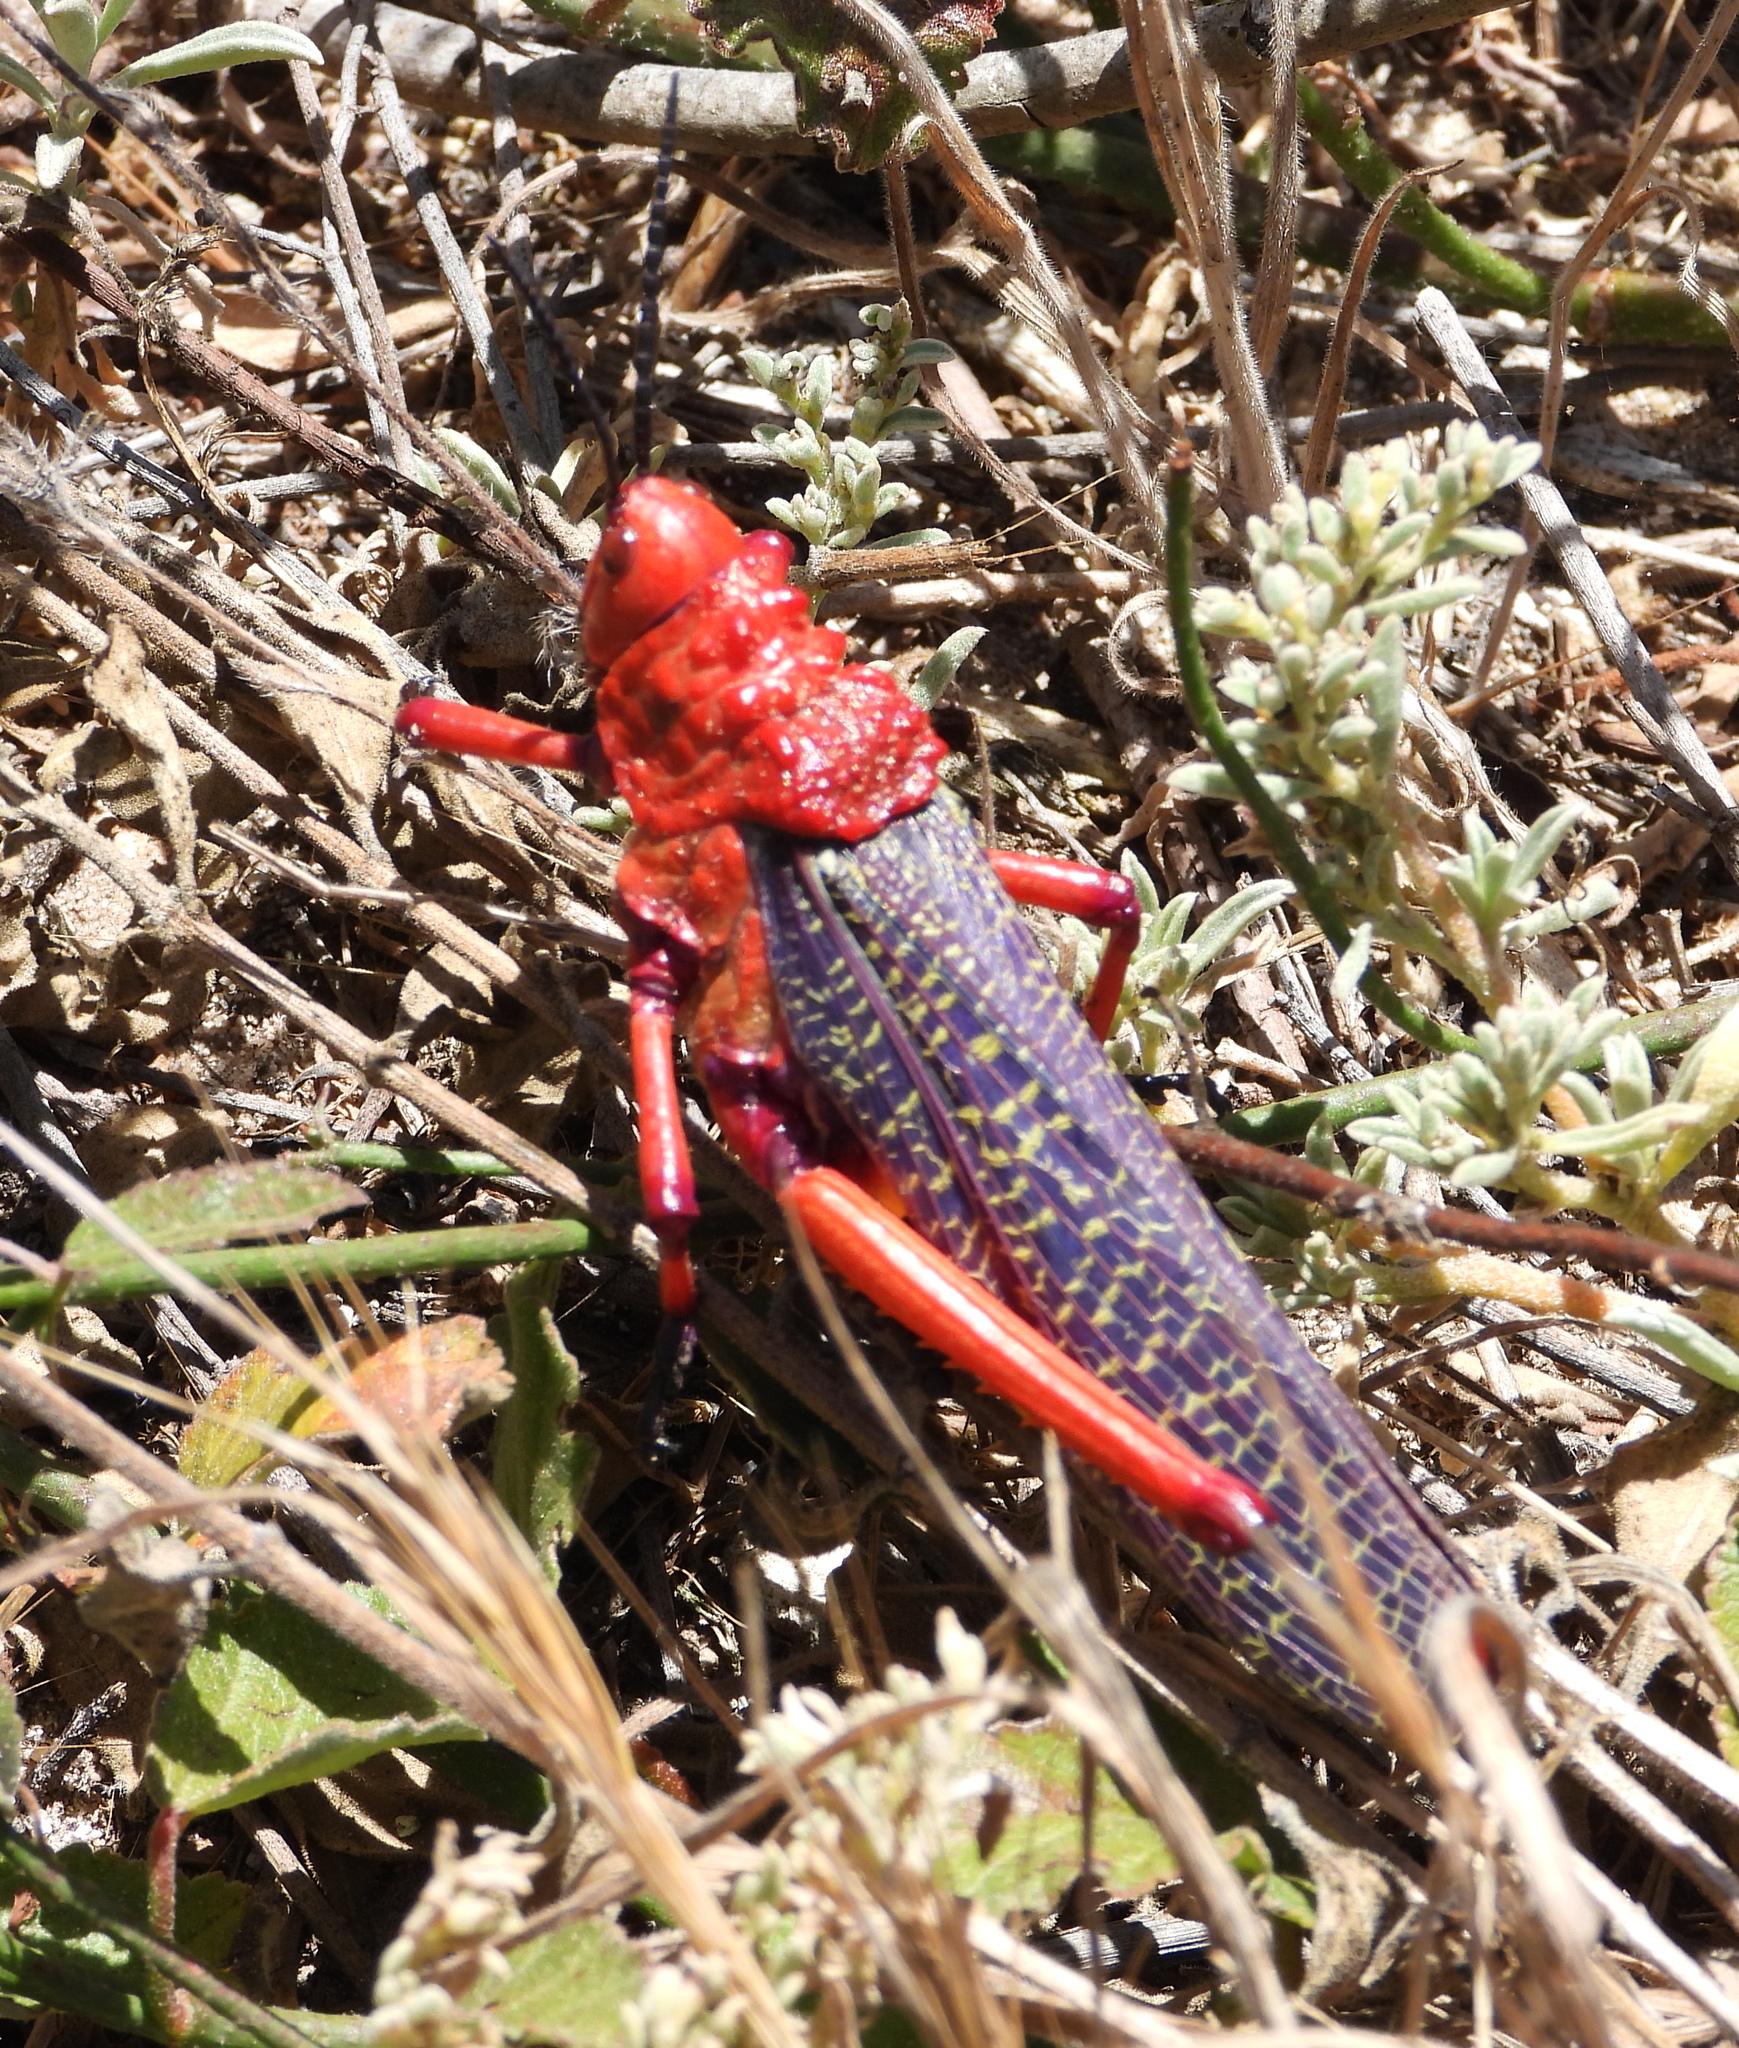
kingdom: Animalia
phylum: Arthropoda
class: Insecta
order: Orthoptera
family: Pyrgomorphidae
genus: Phymateus
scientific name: Phymateus morbillosus
